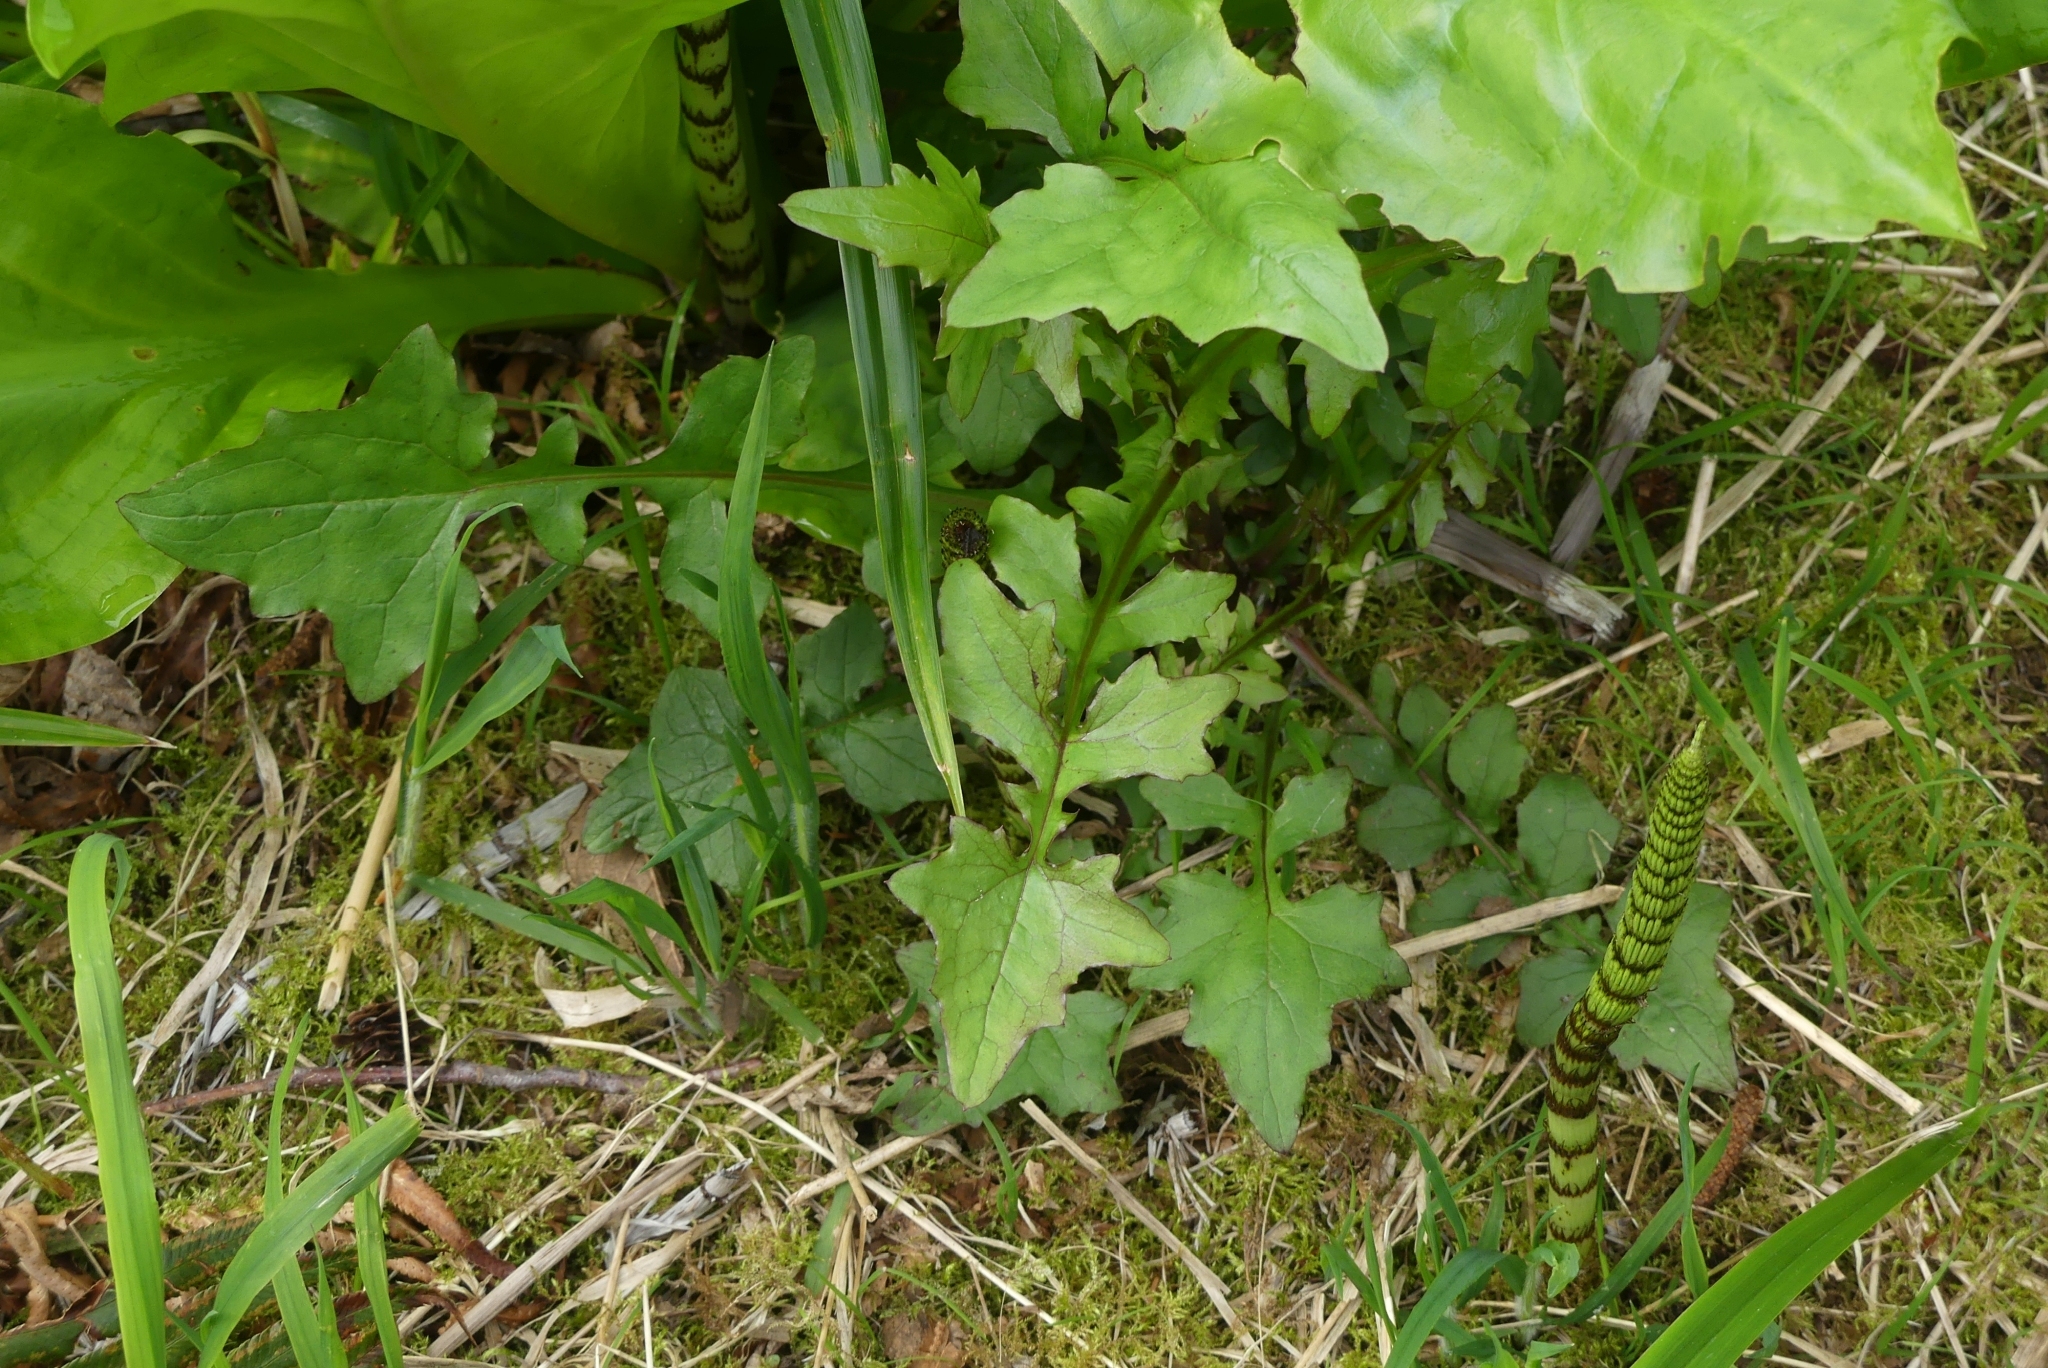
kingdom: Plantae
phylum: Tracheophyta
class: Magnoliopsida
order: Asterales
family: Asteraceae
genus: Mycelis
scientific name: Mycelis muralis
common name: Wall lettuce
